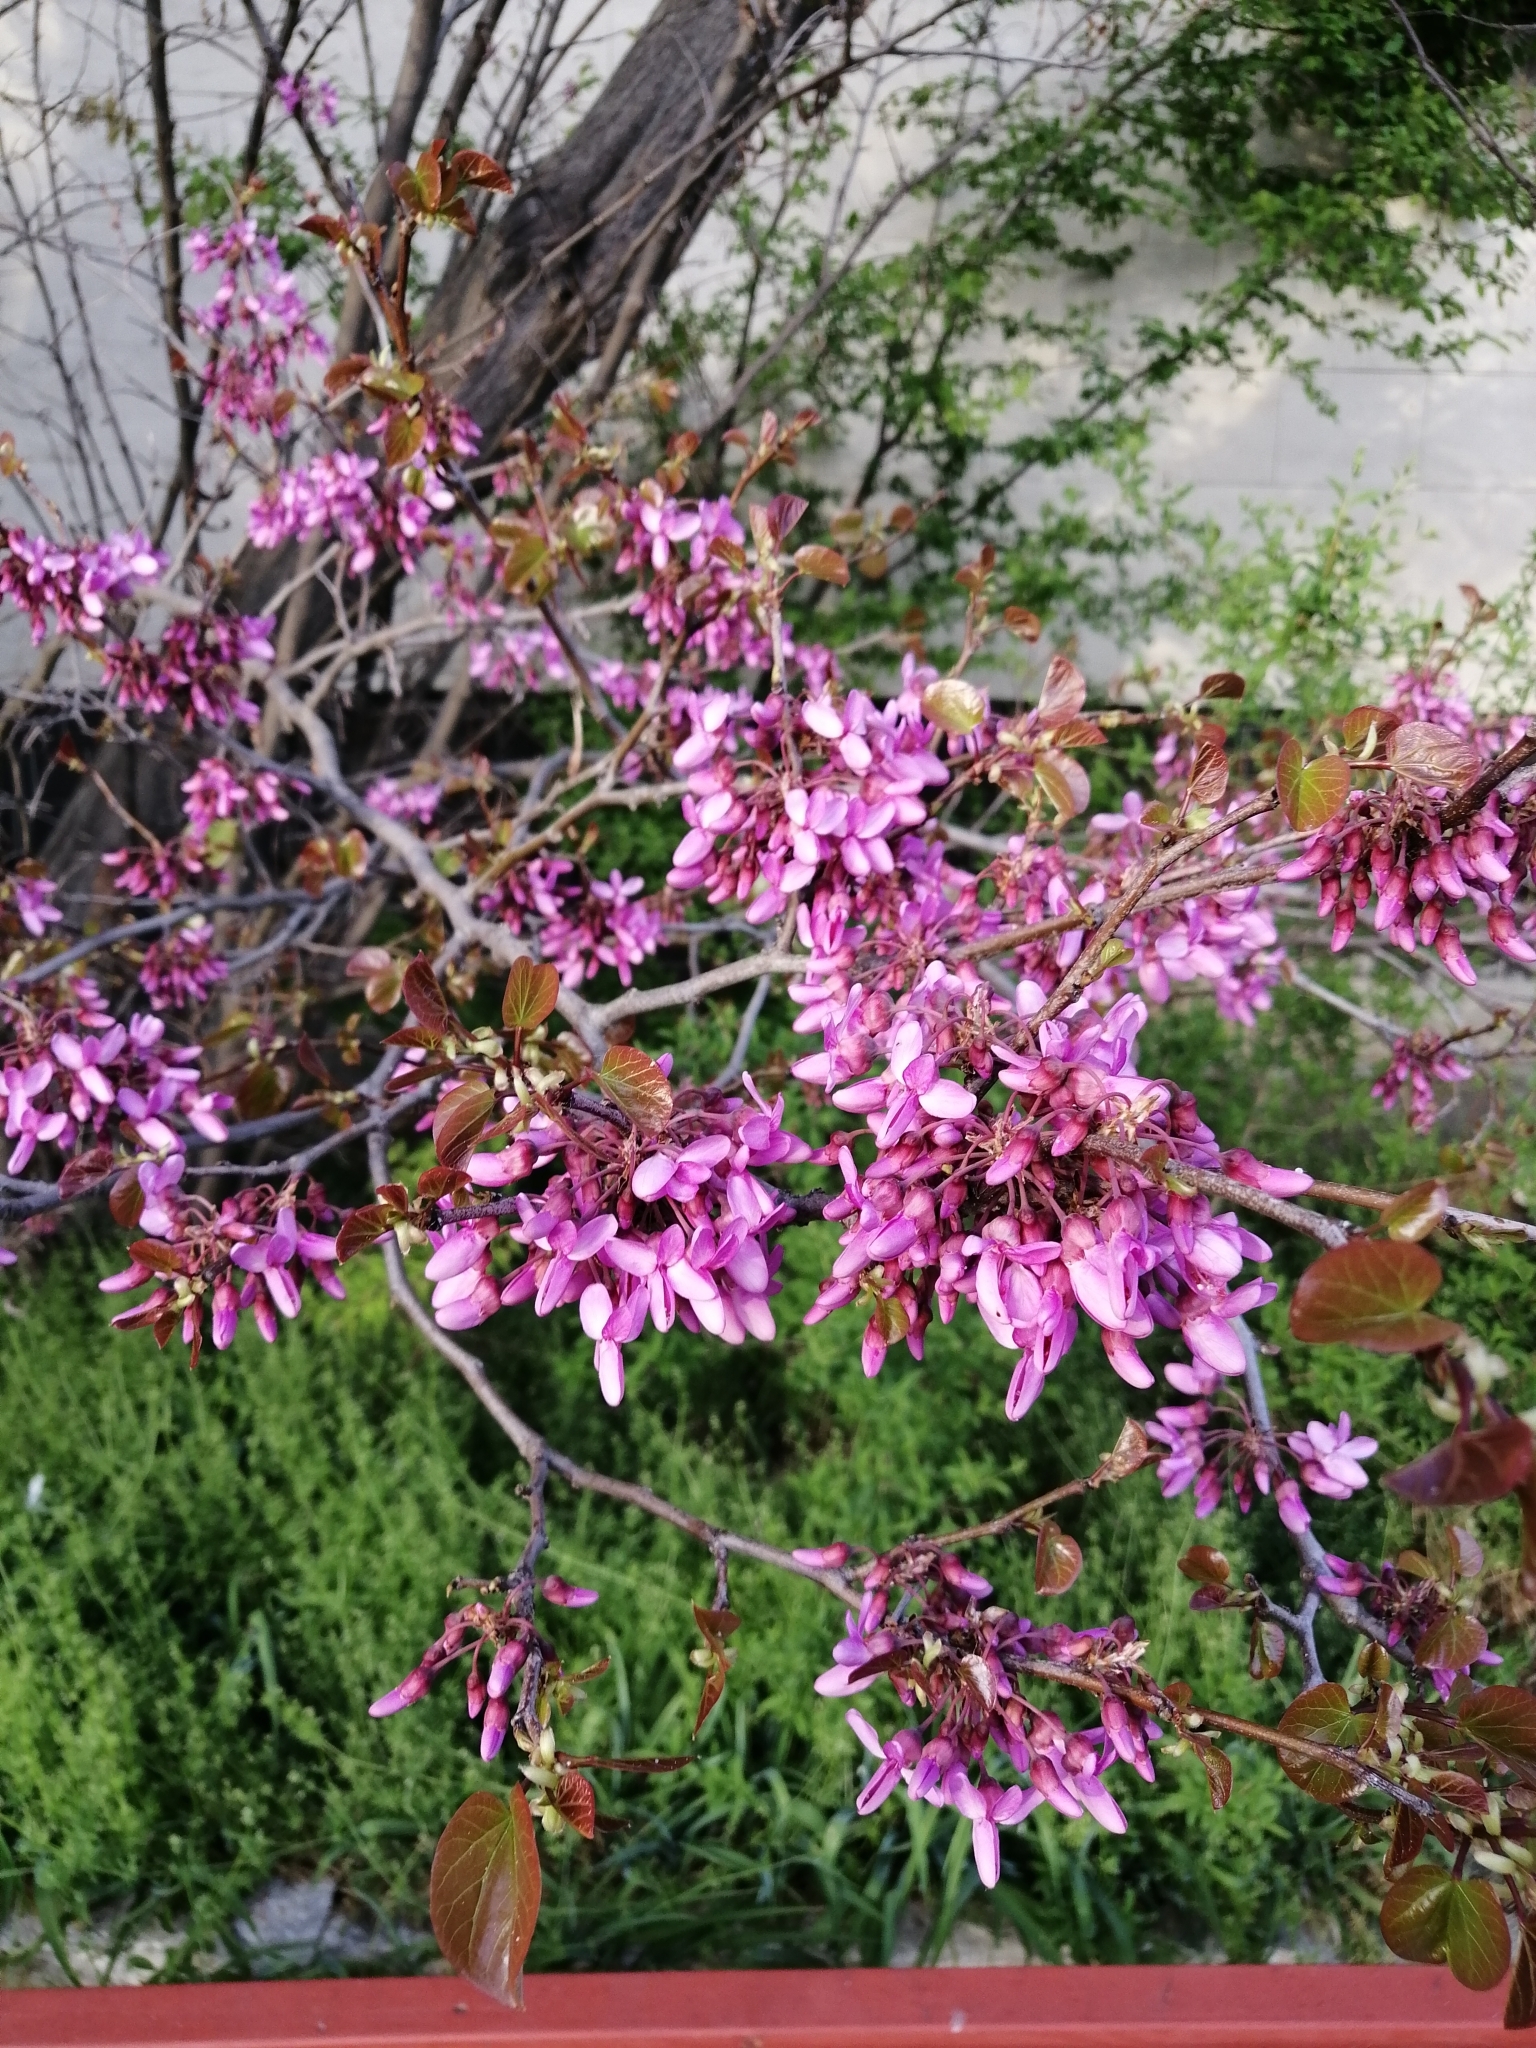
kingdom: Plantae
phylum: Tracheophyta
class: Magnoliopsida
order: Fabales
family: Fabaceae
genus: Cercis
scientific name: Cercis siliquastrum
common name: Judas tree
